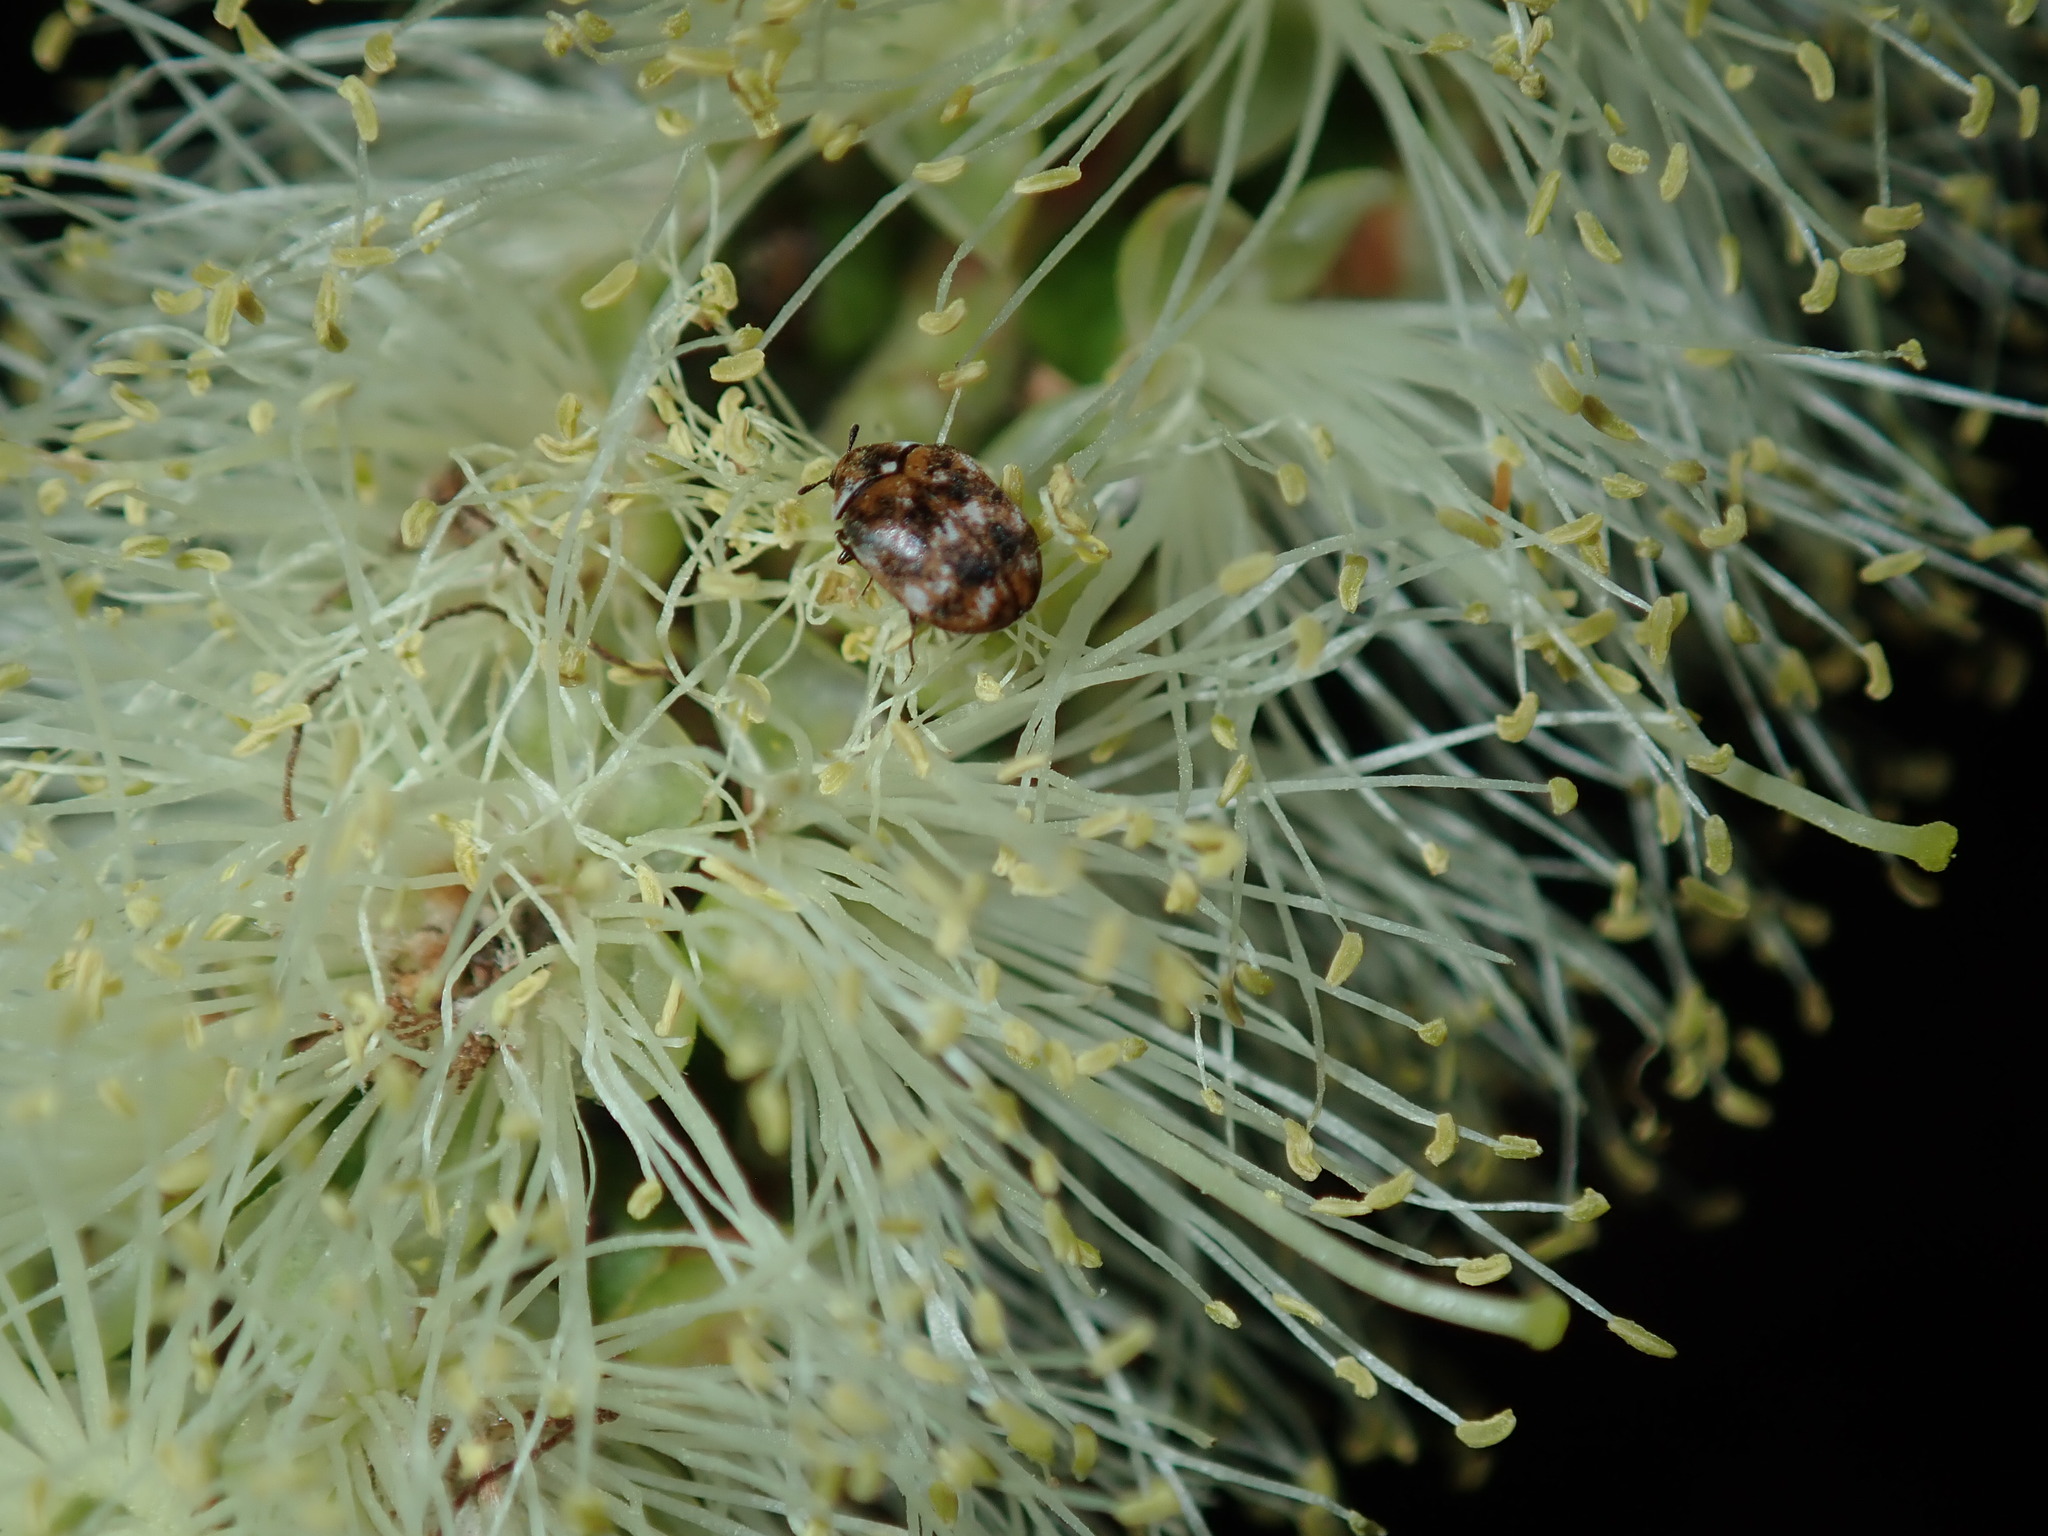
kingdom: Animalia
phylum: Arthropoda
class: Insecta
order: Coleoptera
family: Dermestidae
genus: Anthrenus
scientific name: Anthrenus verbasci
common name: Varied carpet beetle
